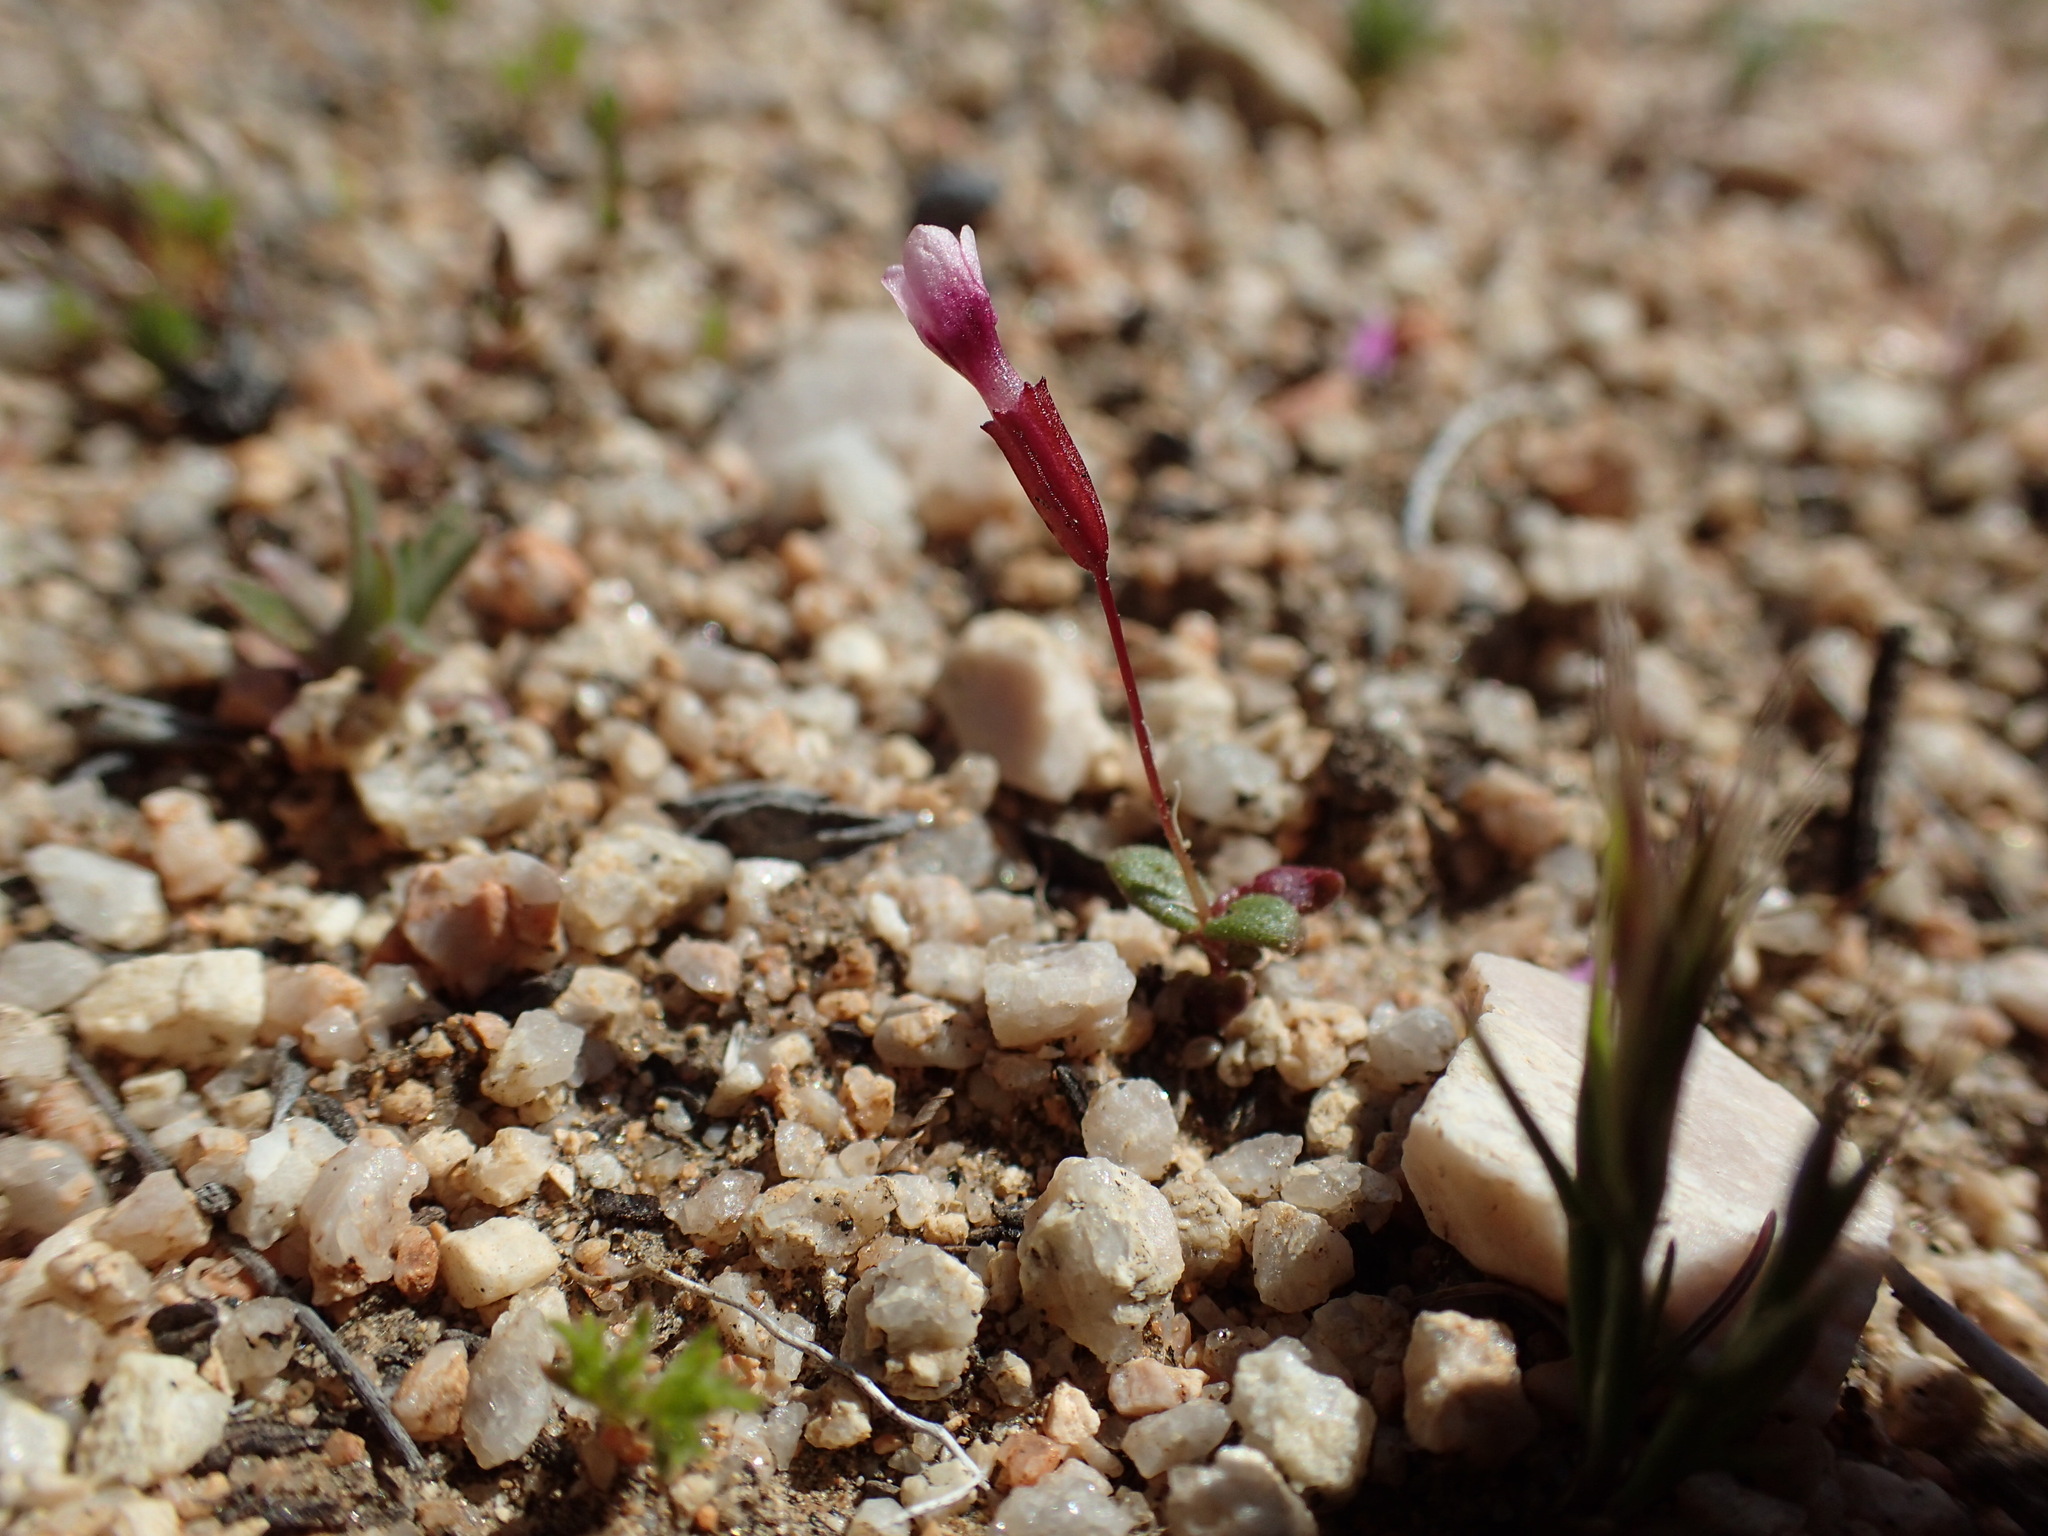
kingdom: Plantae
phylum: Tracheophyta
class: Magnoliopsida
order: Lamiales
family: Phrymaceae
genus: Erythranthe
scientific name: Erythranthe androsacea
